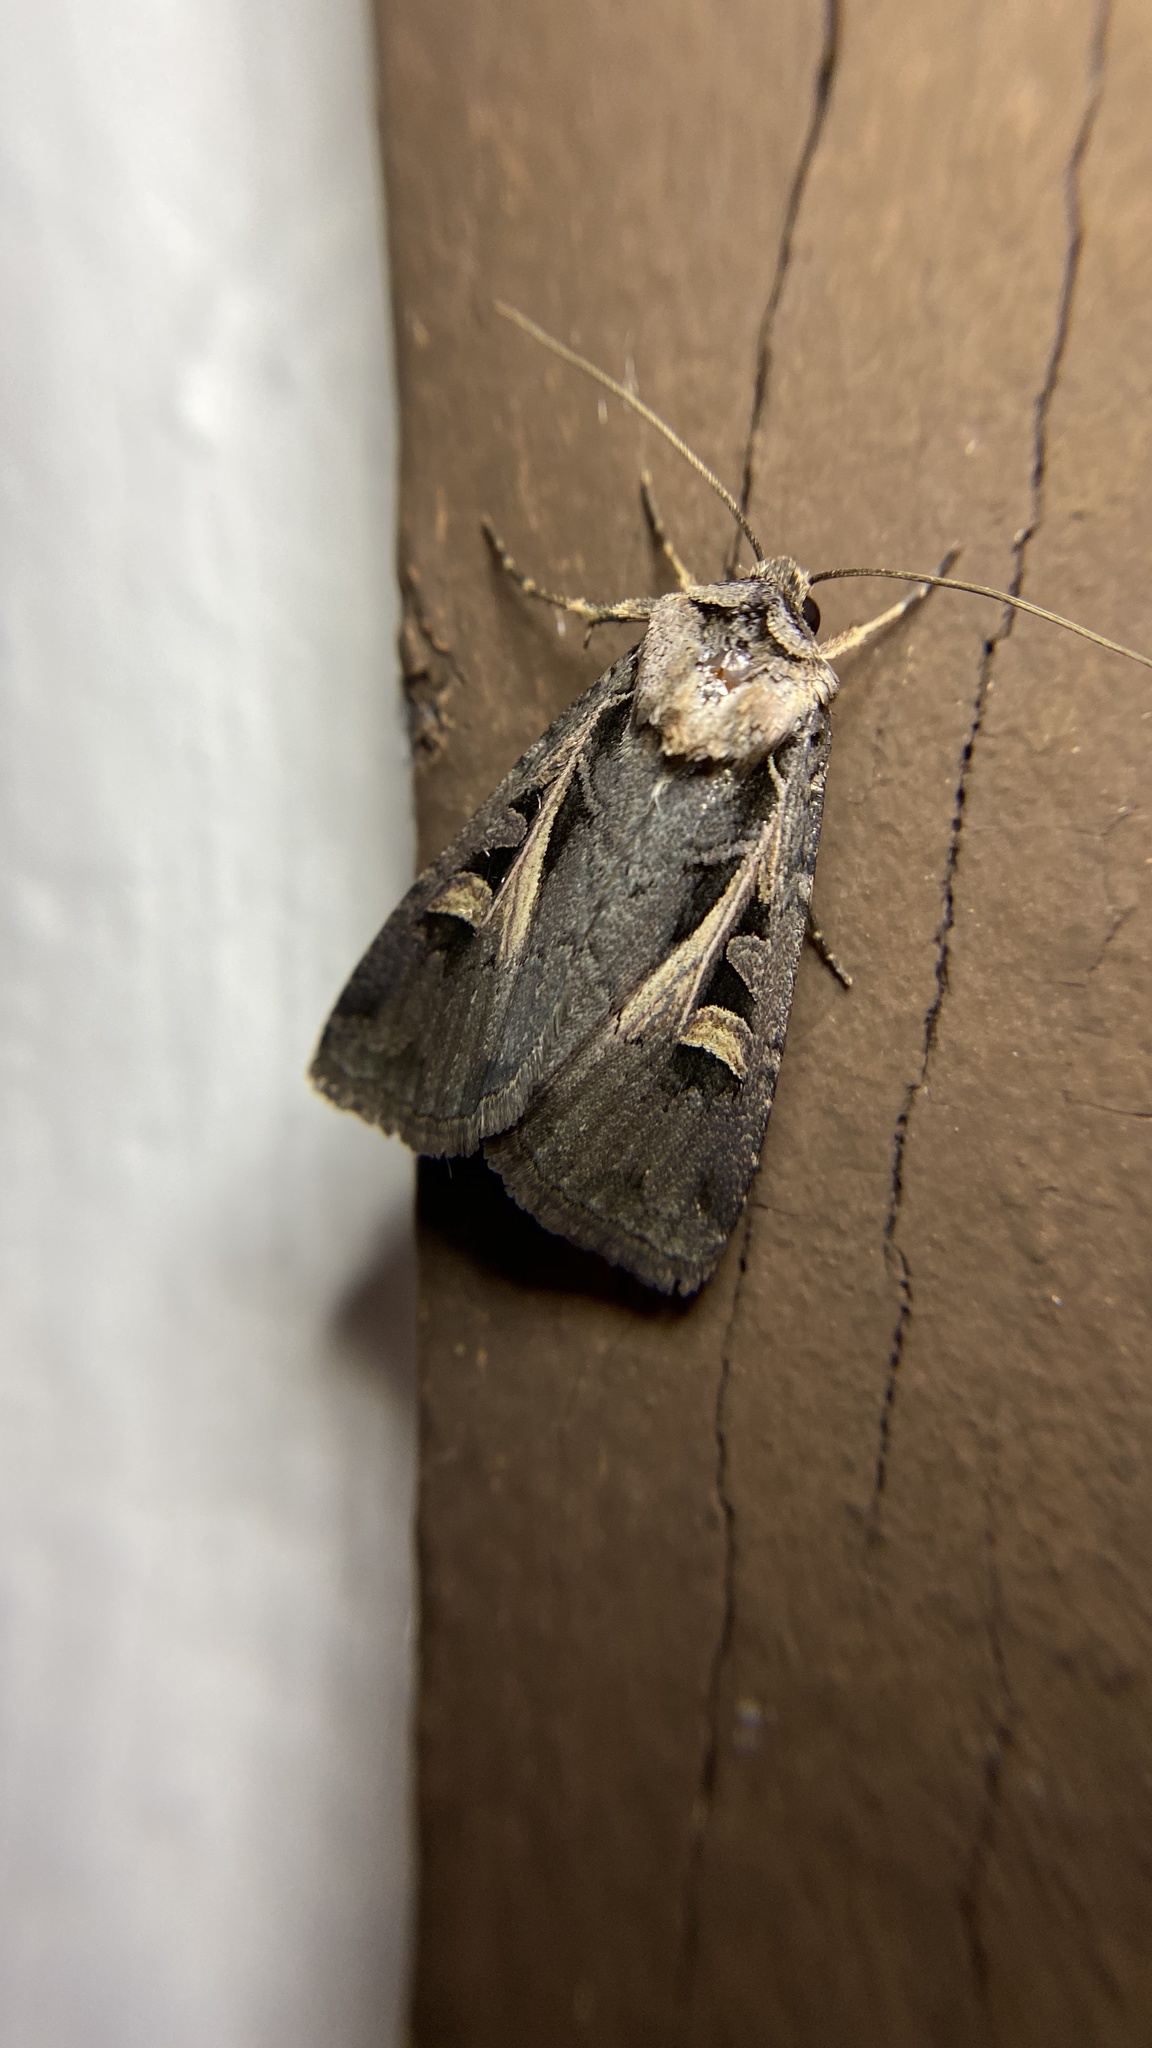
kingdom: Animalia
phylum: Arthropoda
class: Insecta
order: Lepidoptera
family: Noctuidae
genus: Feltia
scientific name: Feltia herilis
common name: Master's dart
